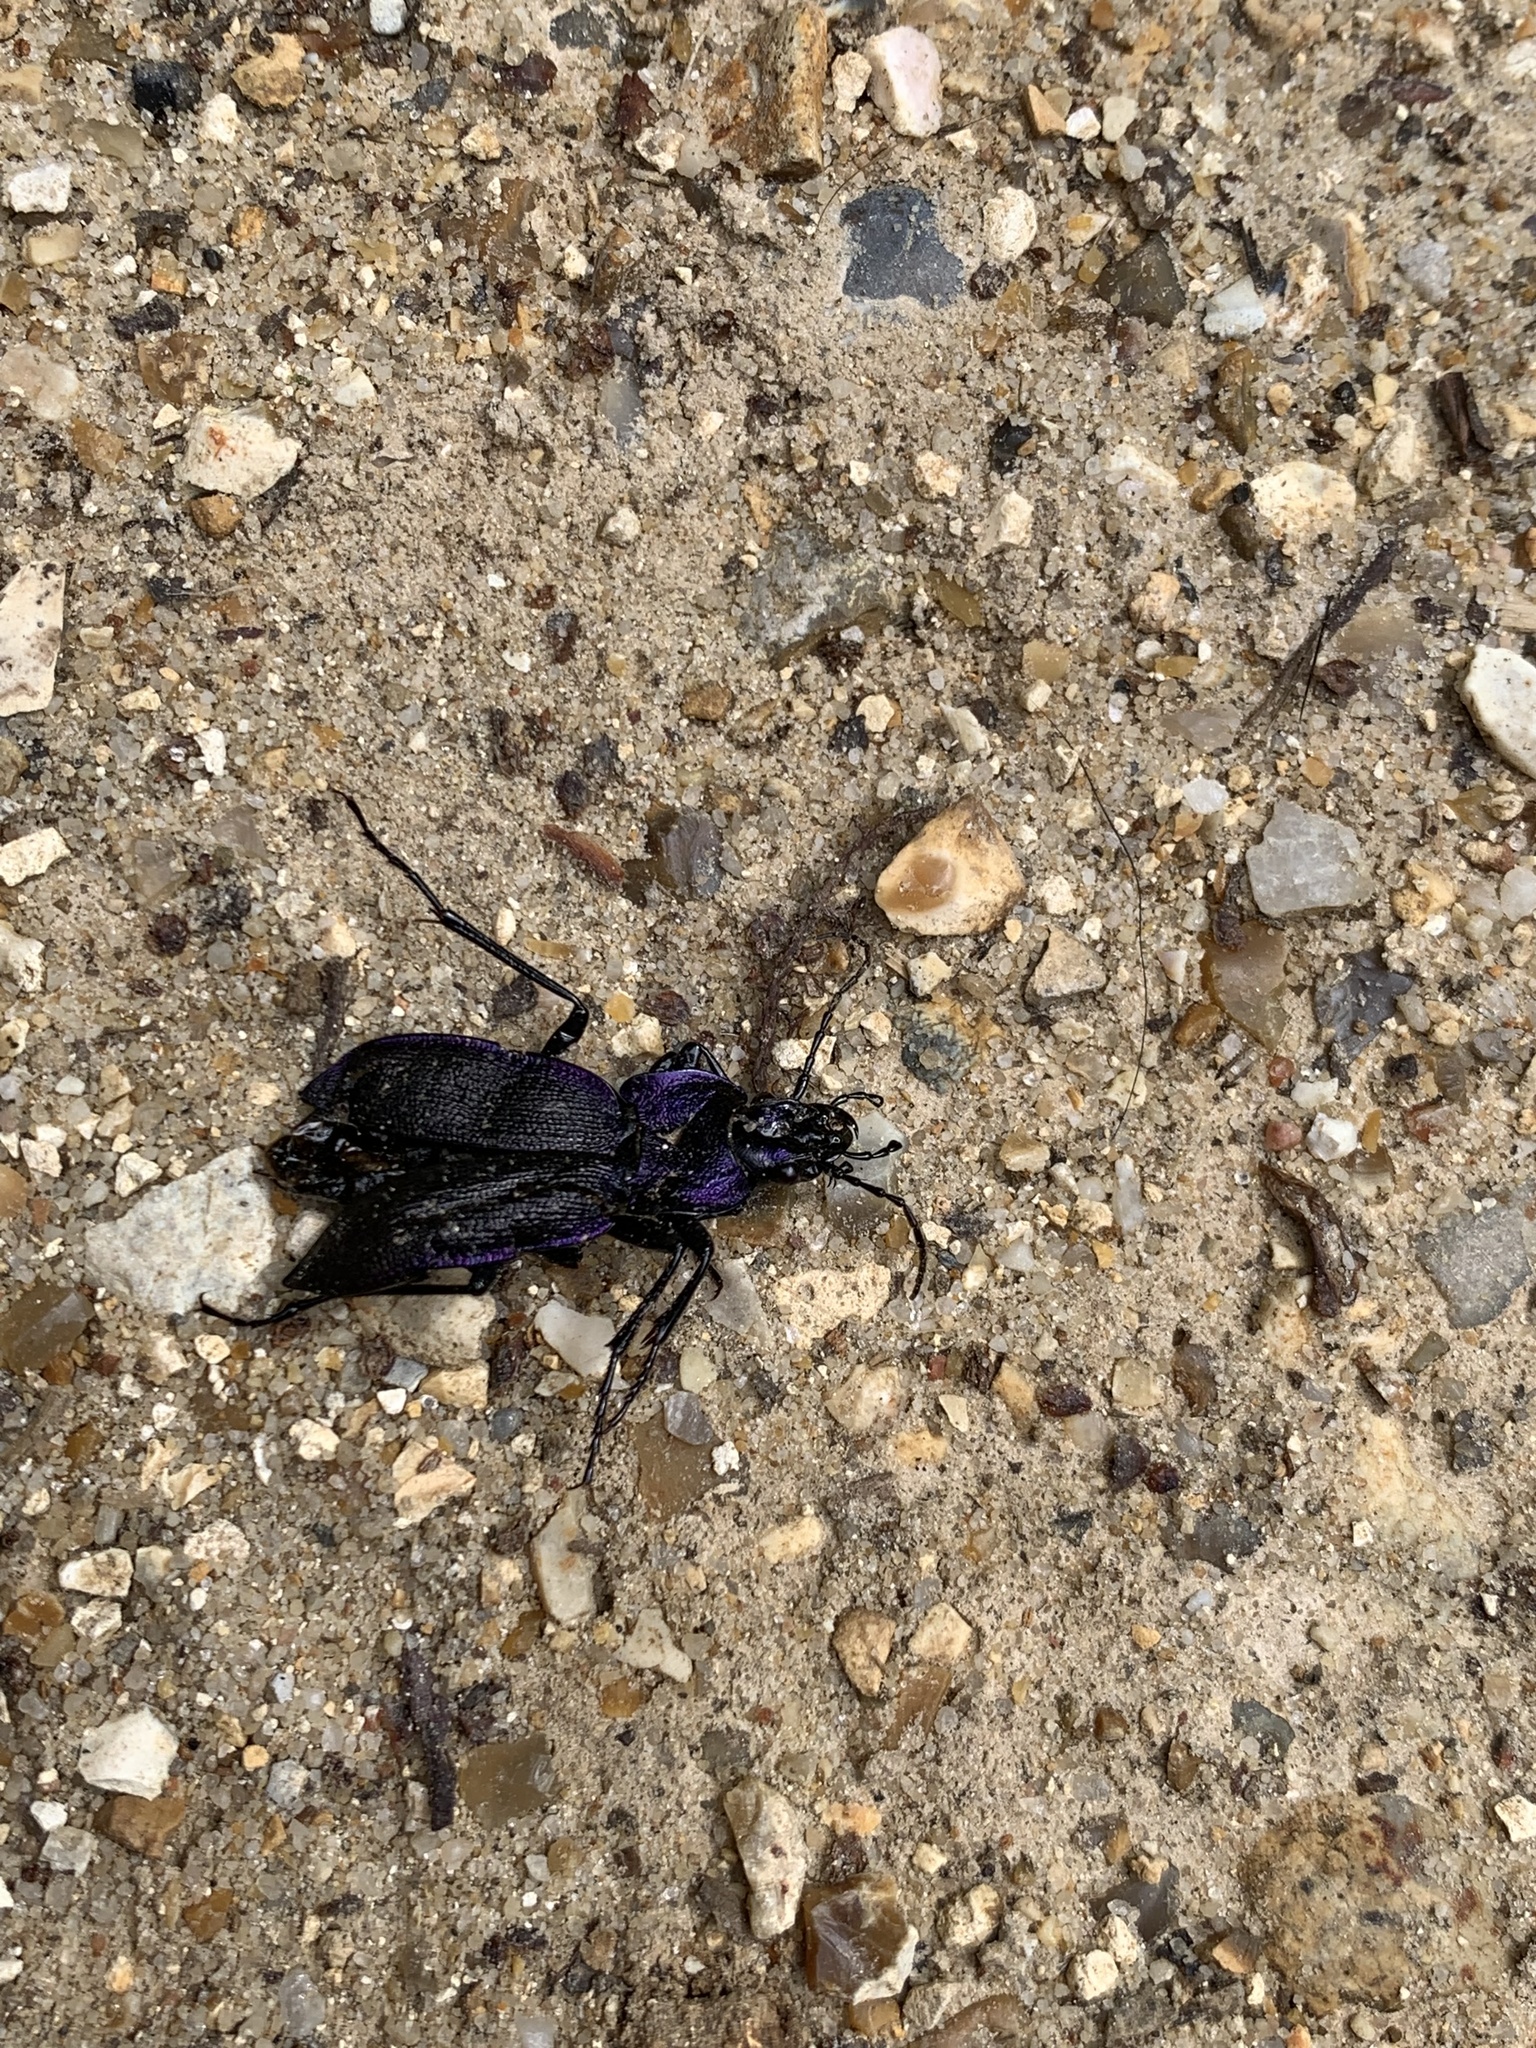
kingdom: Animalia
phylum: Arthropoda
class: Insecta
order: Coleoptera
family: Carabidae
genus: Carabus
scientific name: Carabus problematicus
